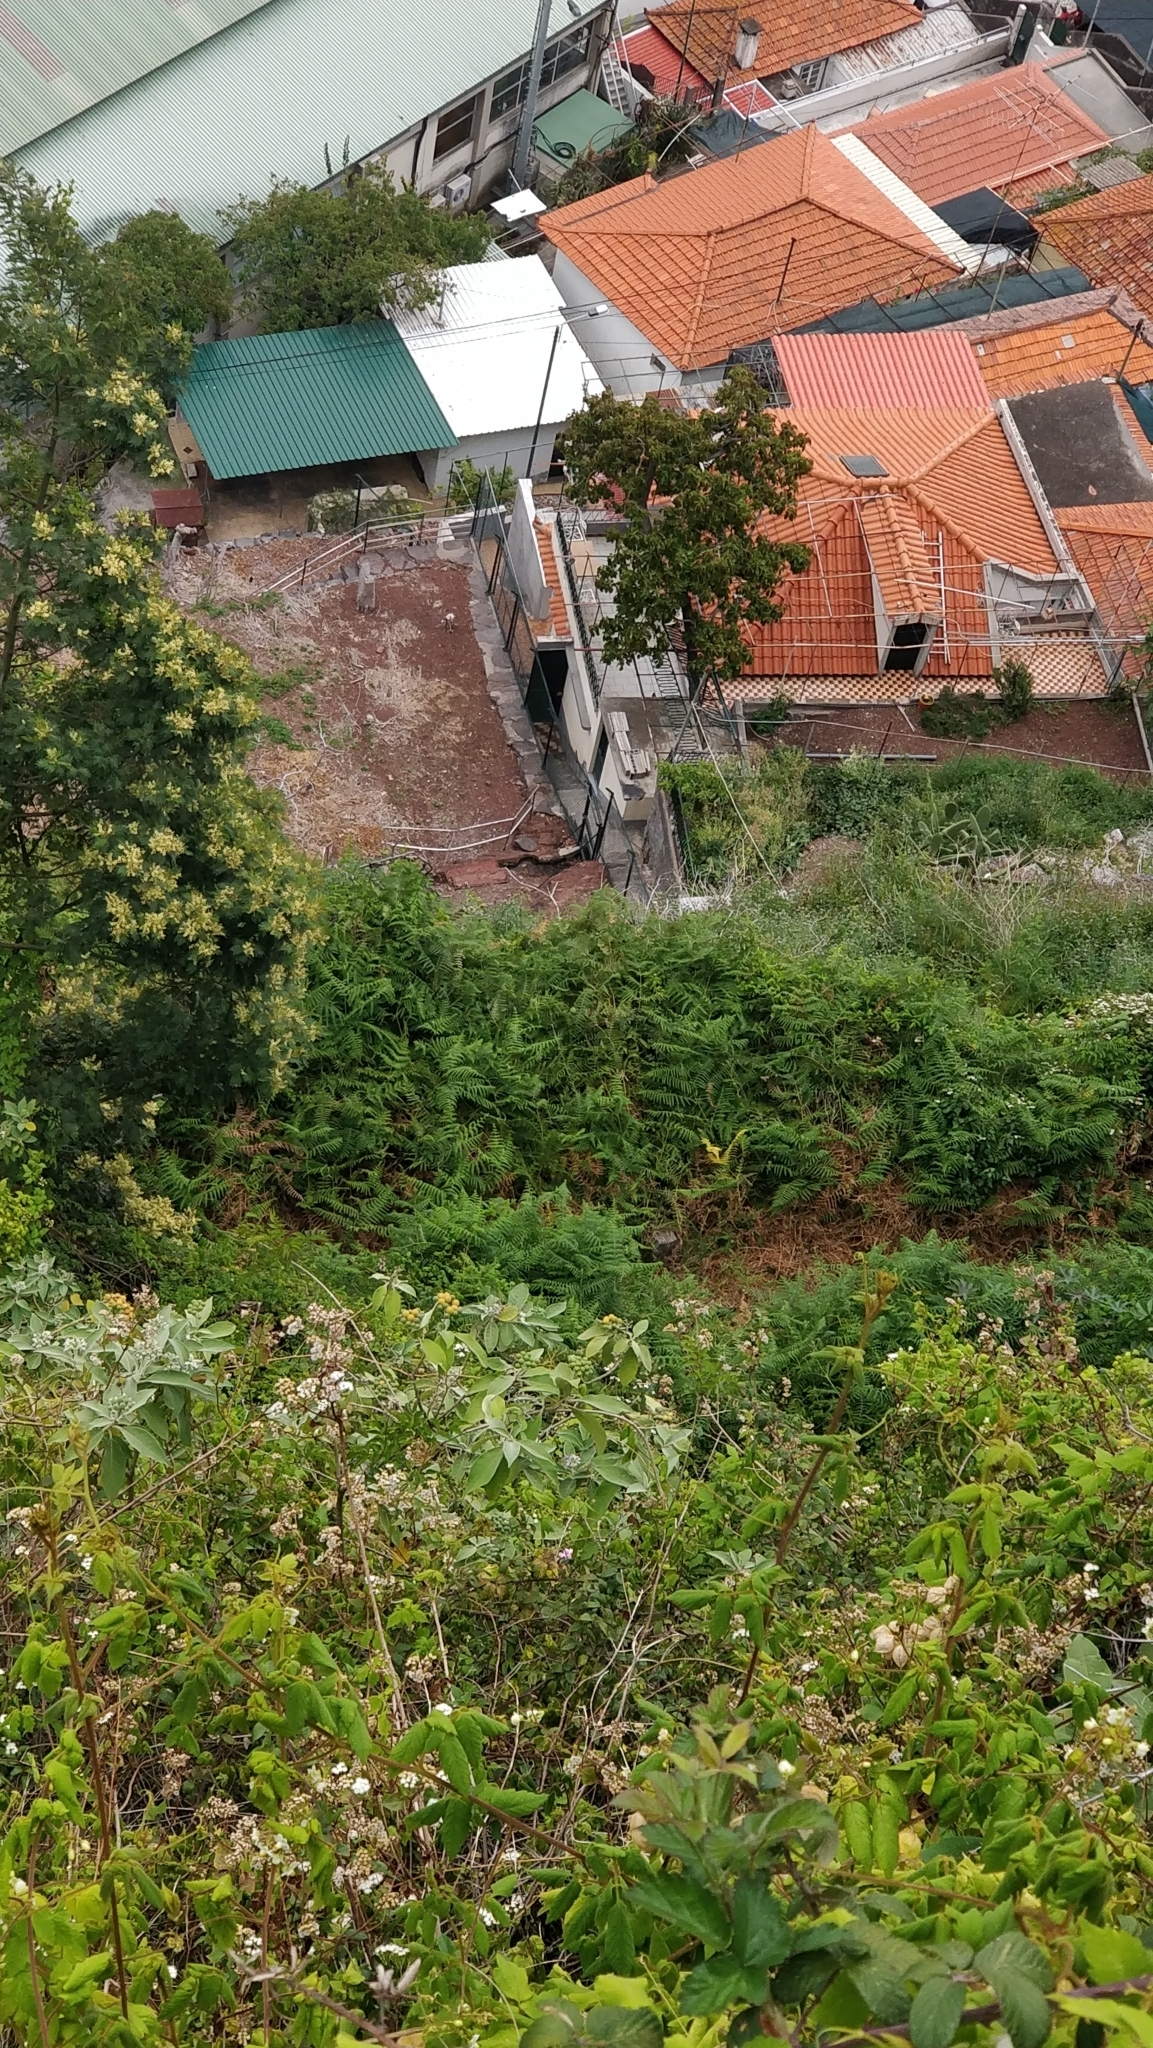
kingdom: Plantae
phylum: Tracheophyta
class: Polypodiopsida
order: Polypodiales
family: Dennstaedtiaceae
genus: Pteridium
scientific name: Pteridium aquilinum
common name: Bracken
